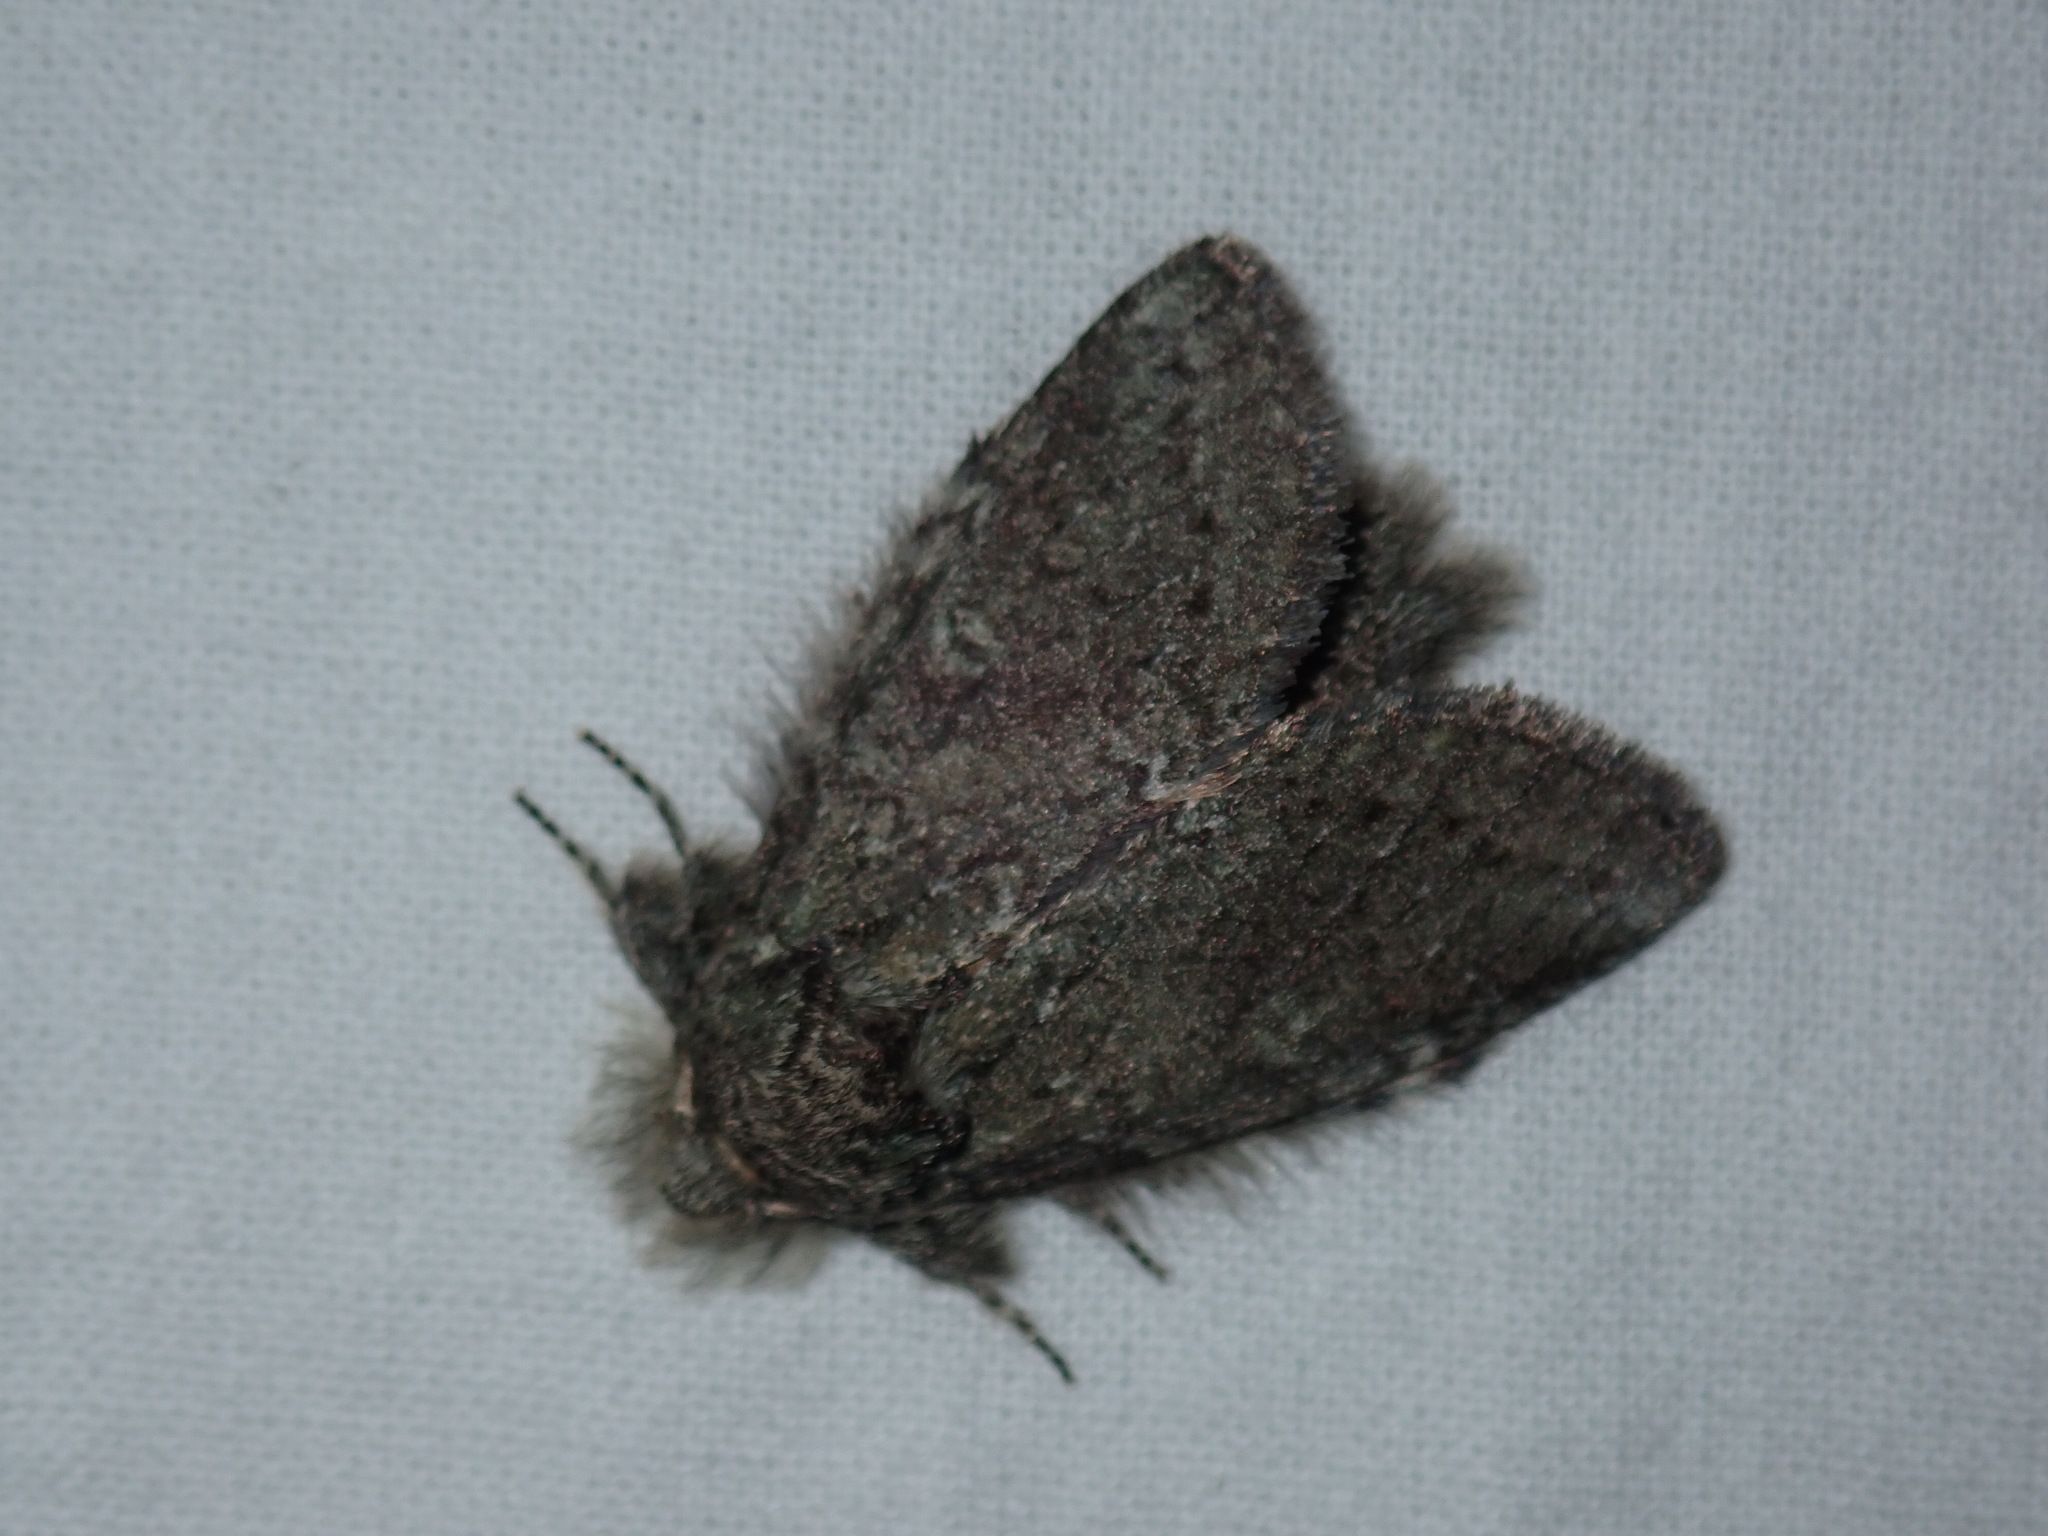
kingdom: Animalia
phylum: Arthropoda
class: Insecta
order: Lepidoptera
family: Notodontidae
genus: Disphragis
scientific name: Disphragis Cecrita guttivitta
